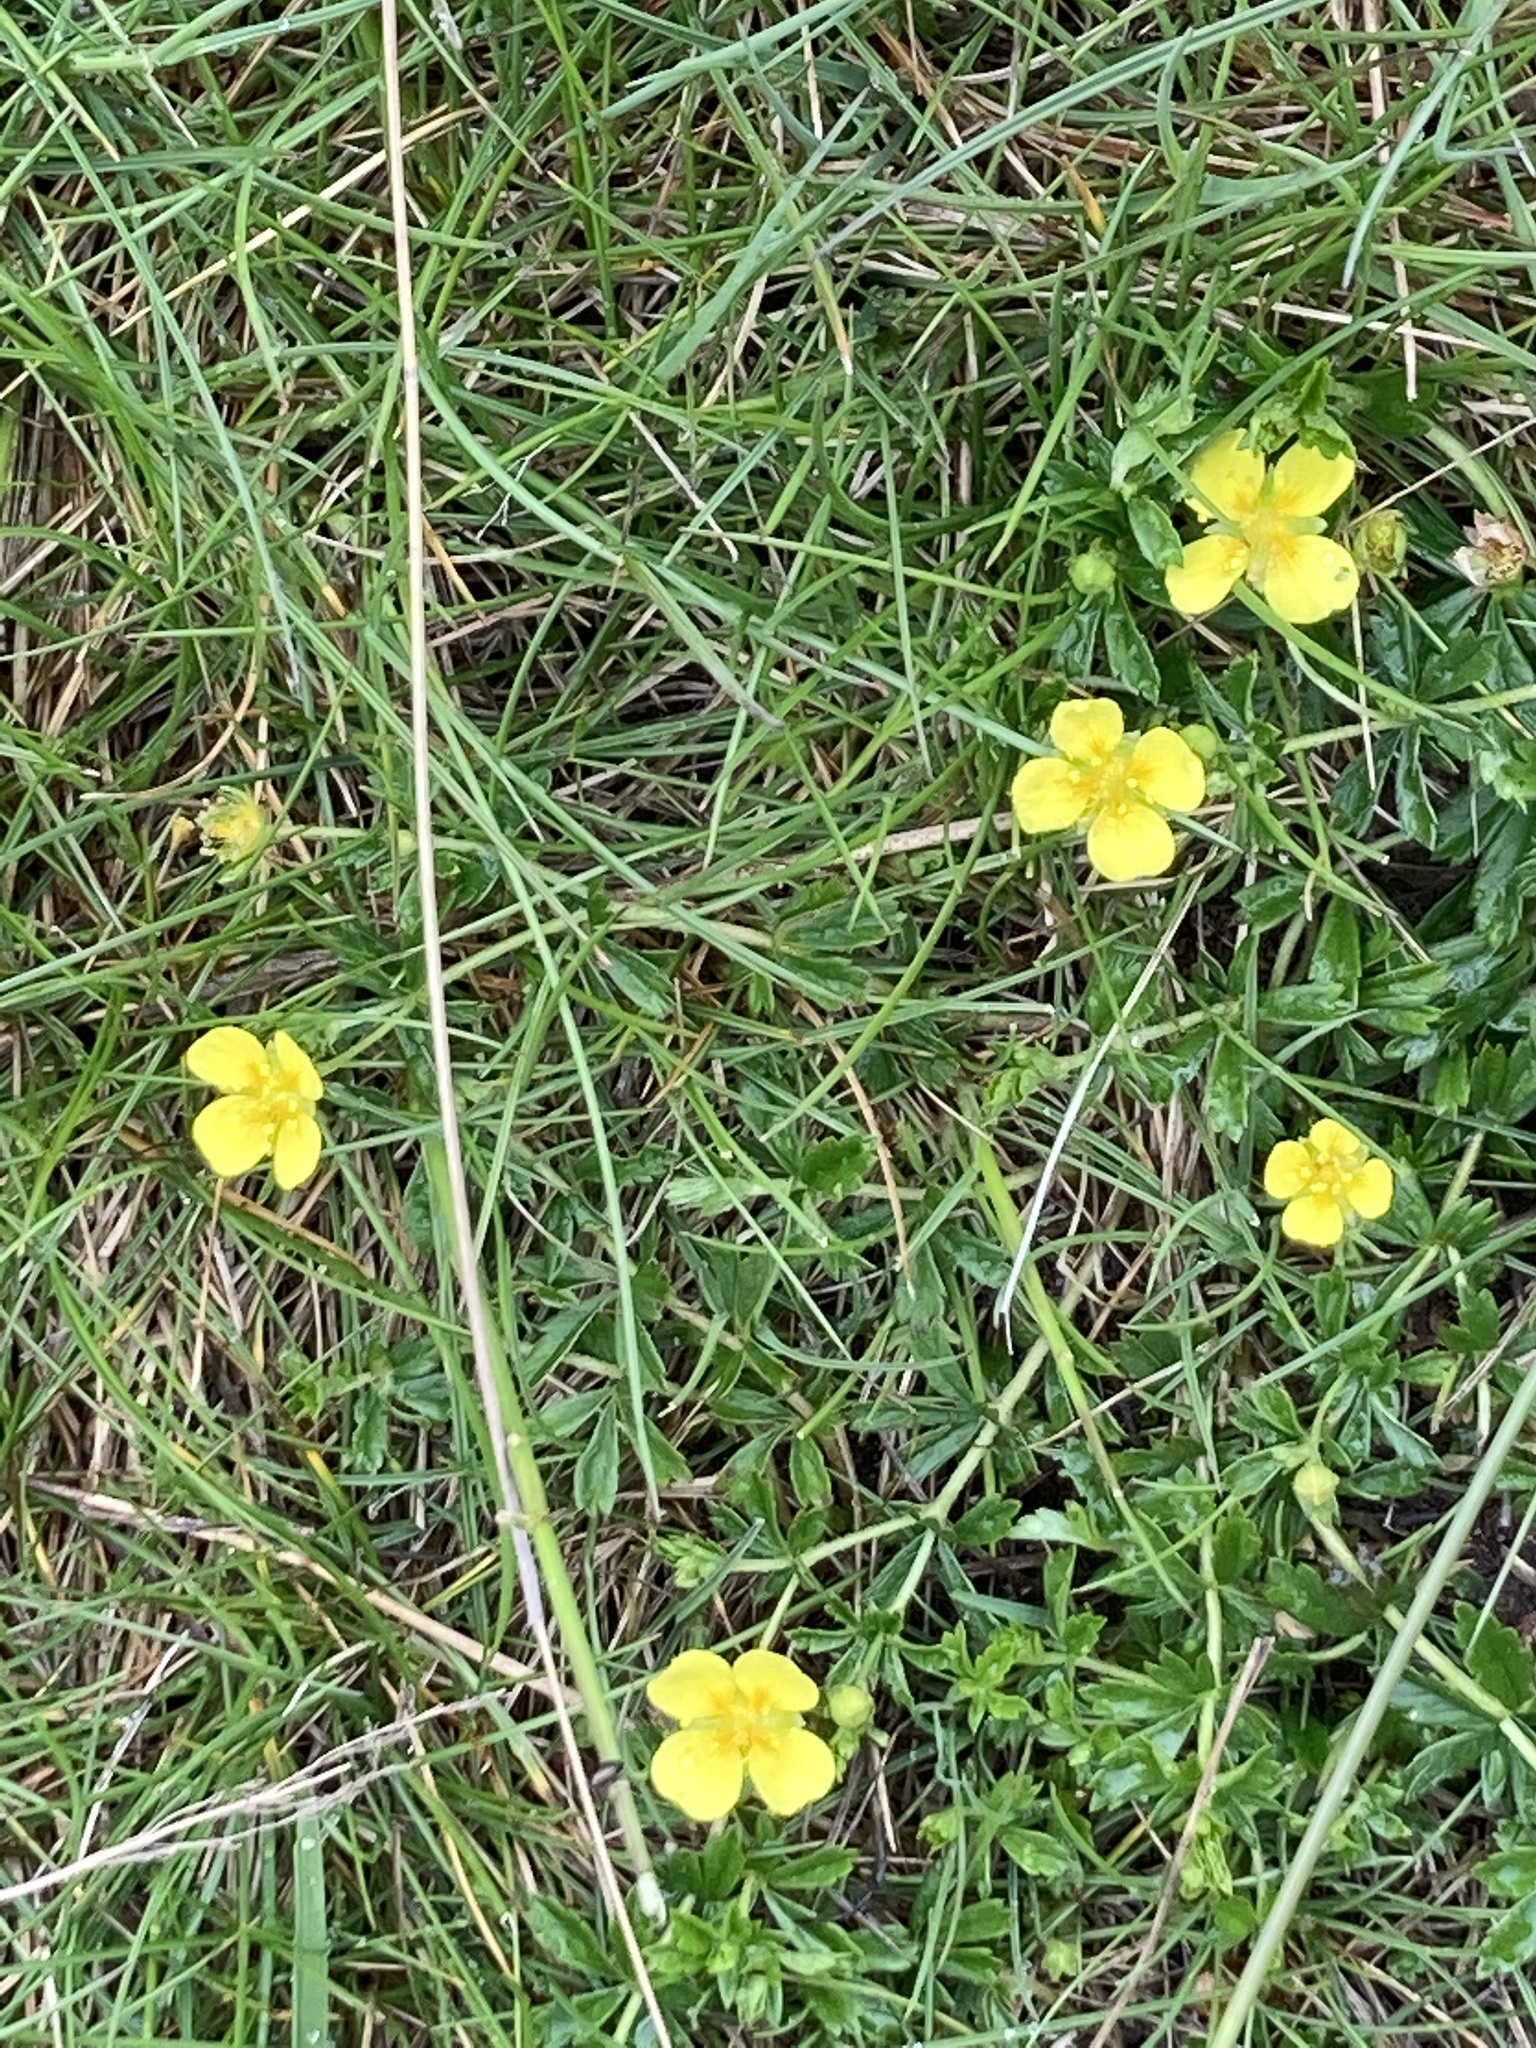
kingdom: Plantae
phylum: Tracheophyta
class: Magnoliopsida
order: Rosales
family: Rosaceae
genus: Potentilla
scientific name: Potentilla erecta
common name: Tormentil
